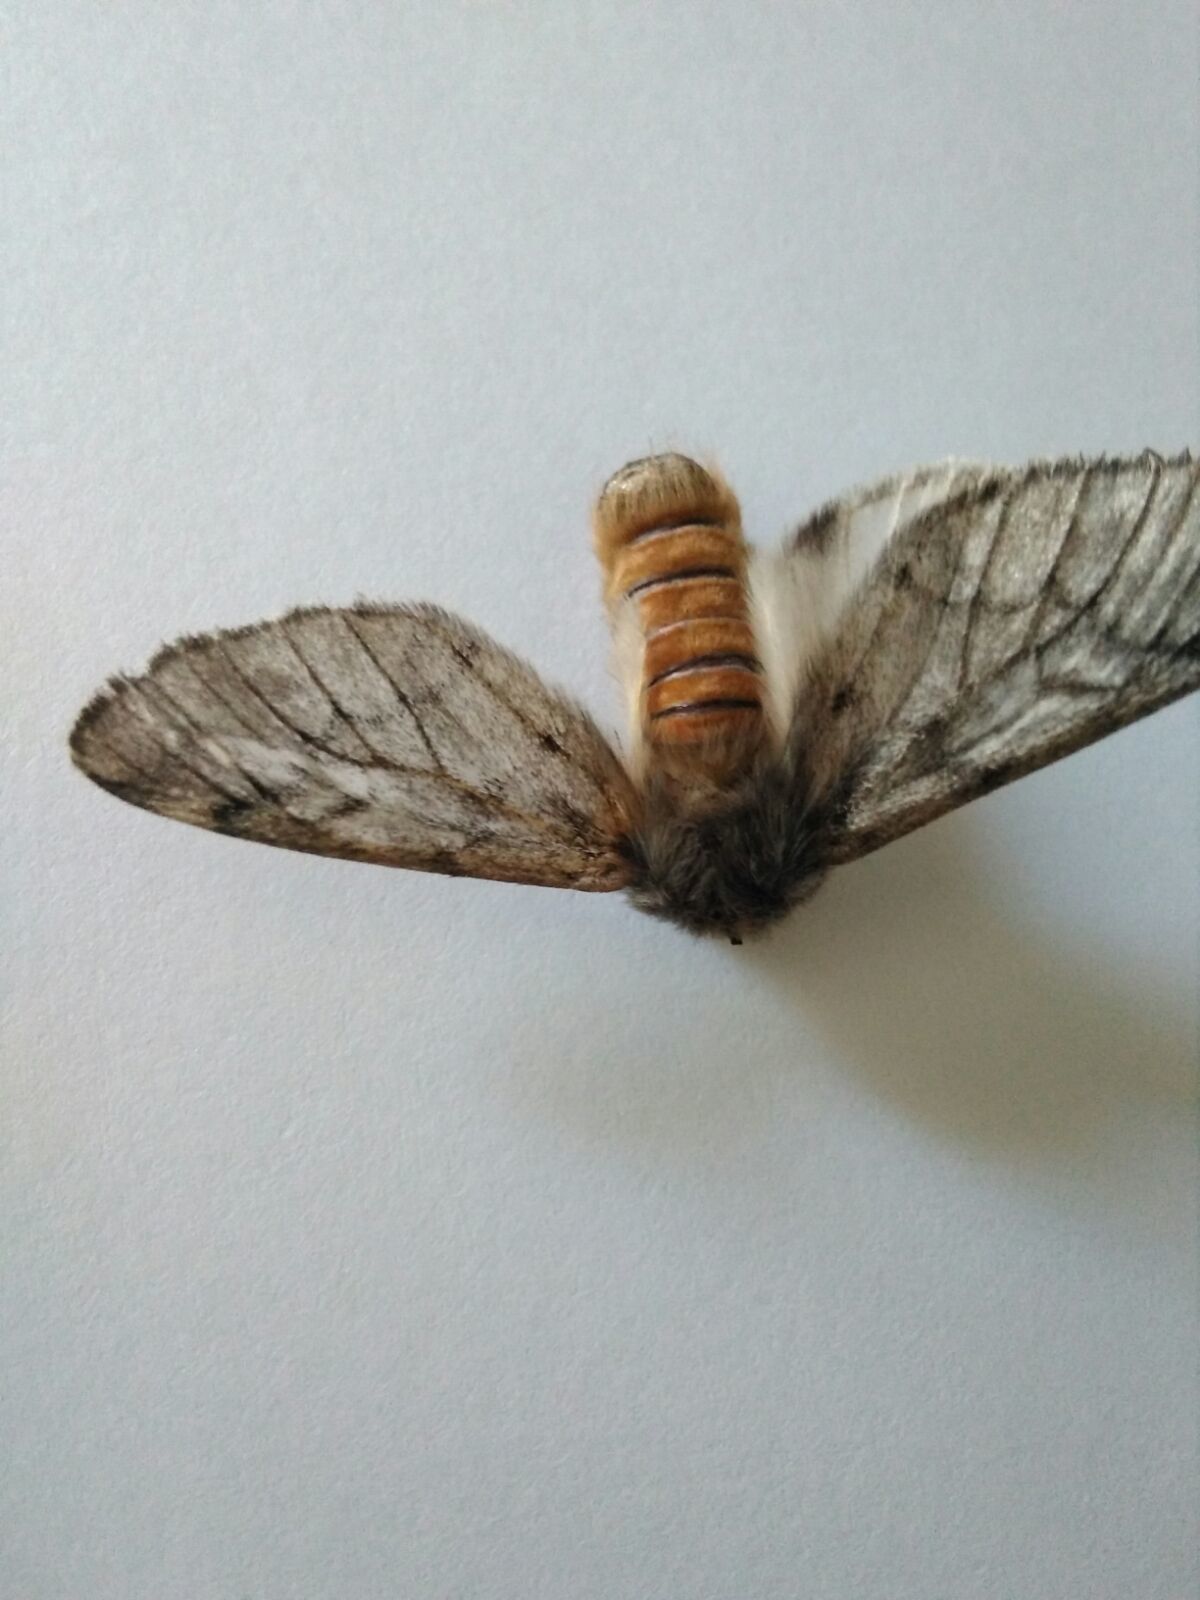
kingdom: Animalia
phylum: Arthropoda
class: Insecta
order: Lepidoptera
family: Notodontidae
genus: Thaumetopoea
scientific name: Thaumetopoea pityocampa
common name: Pine processionary
